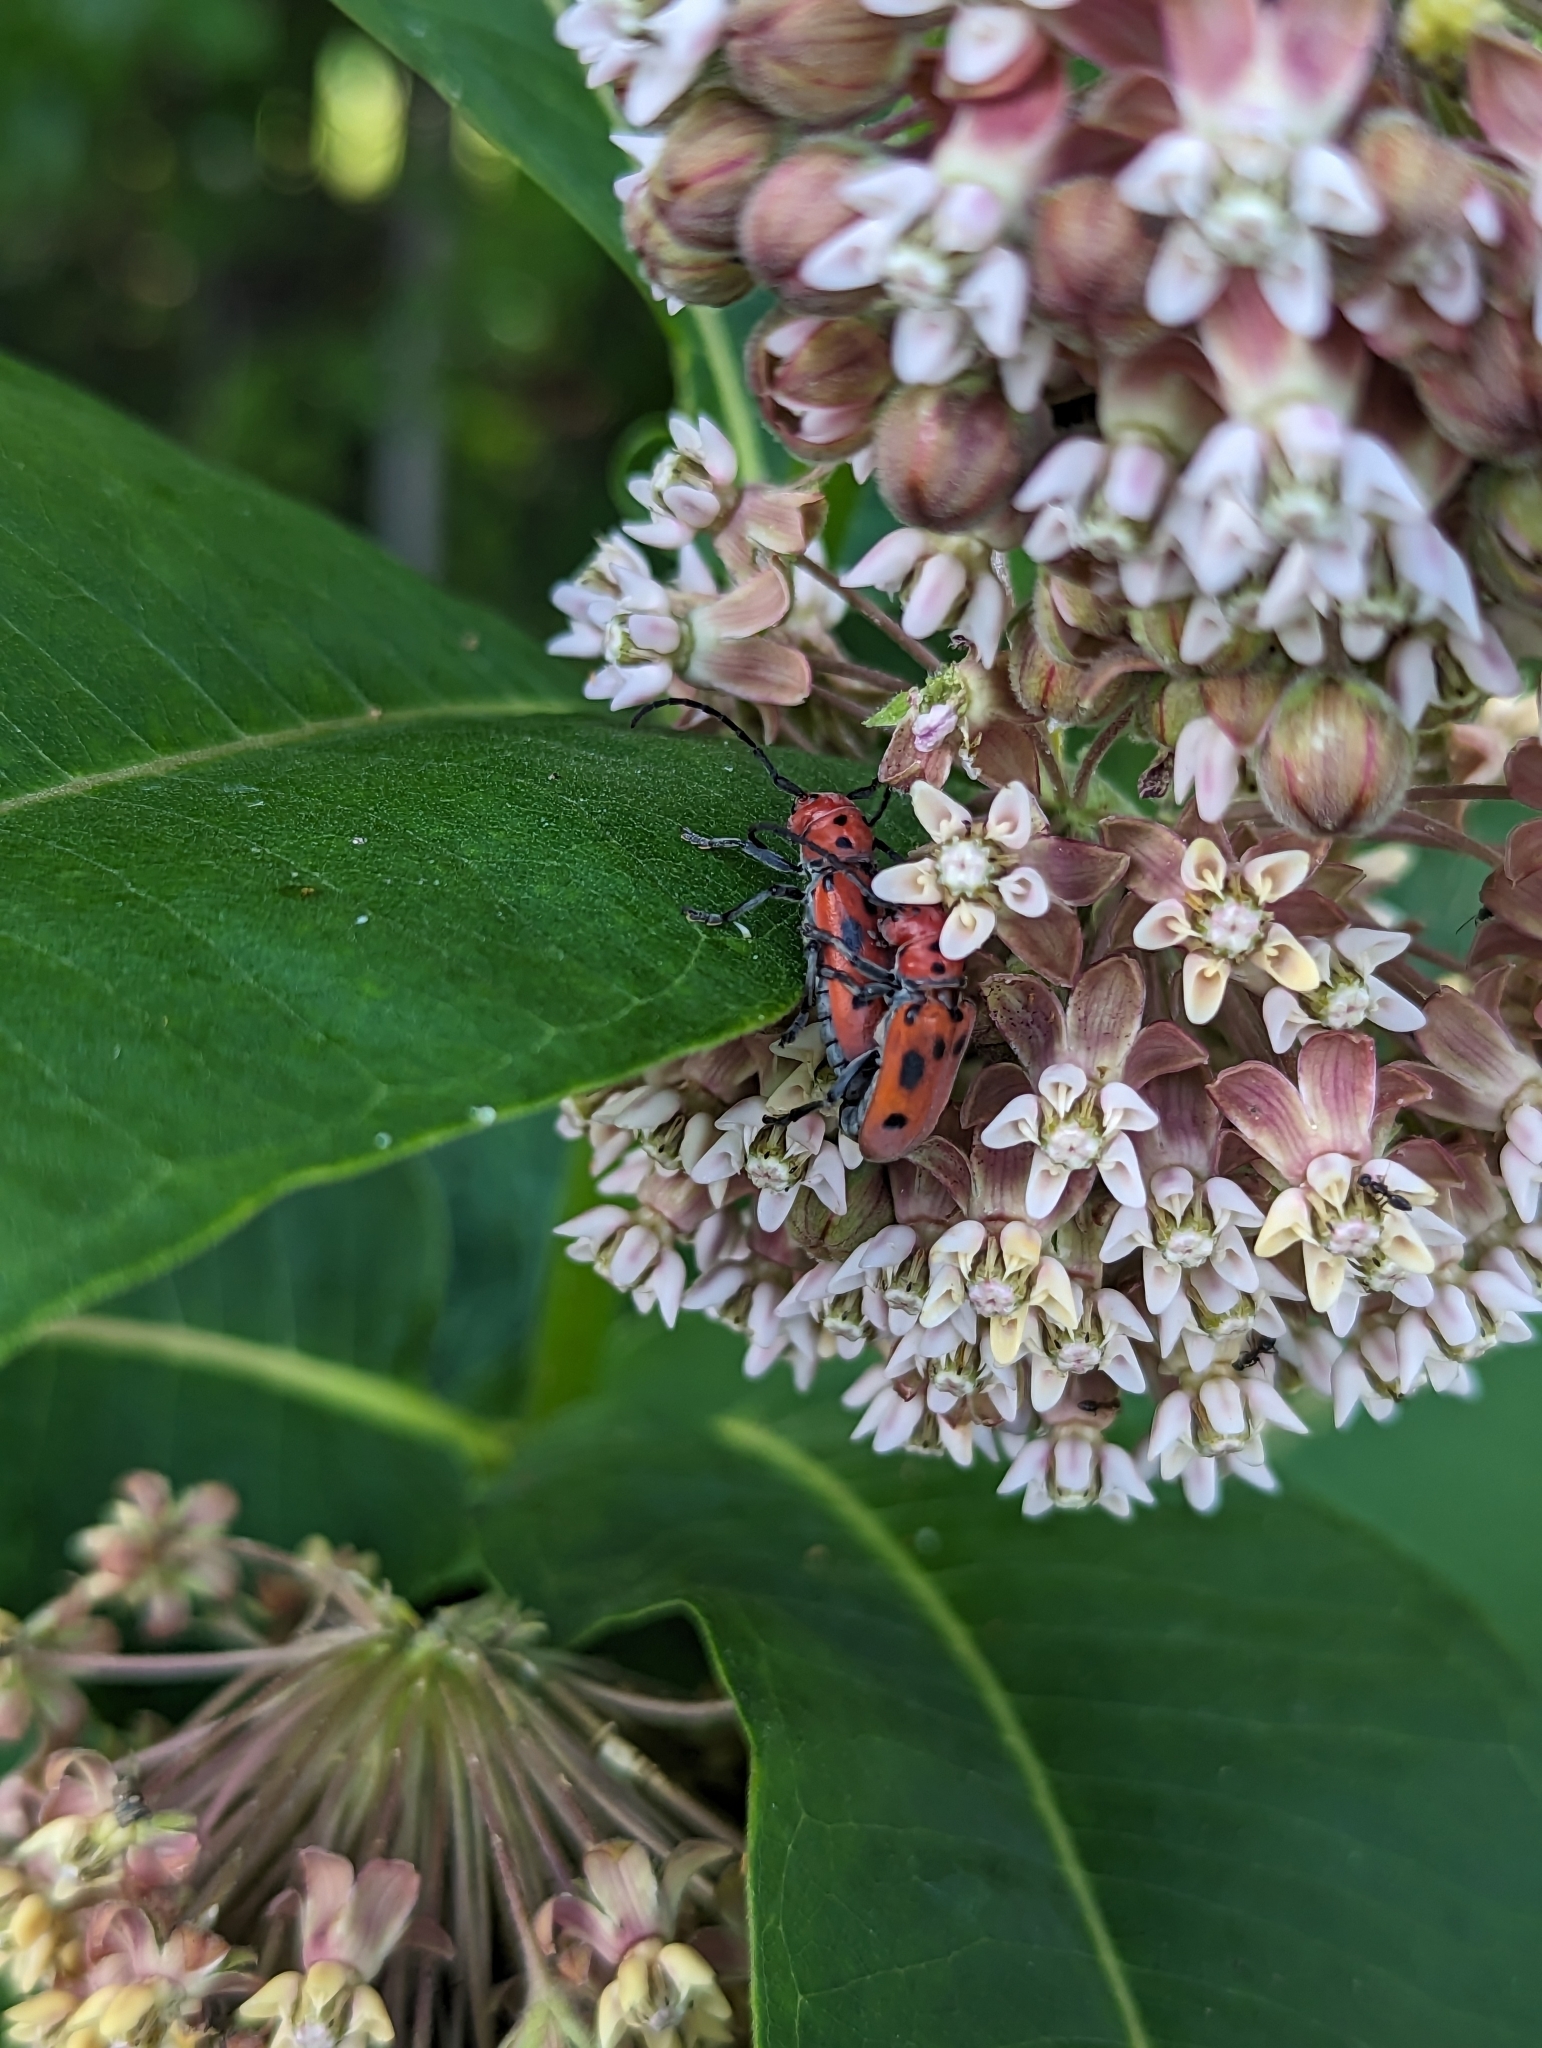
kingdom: Animalia
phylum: Arthropoda
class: Insecta
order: Coleoptera
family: Cerambycidae
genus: Tetraopes
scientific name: Tetraopes tetrophthalmus
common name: Red milkweed beetle
